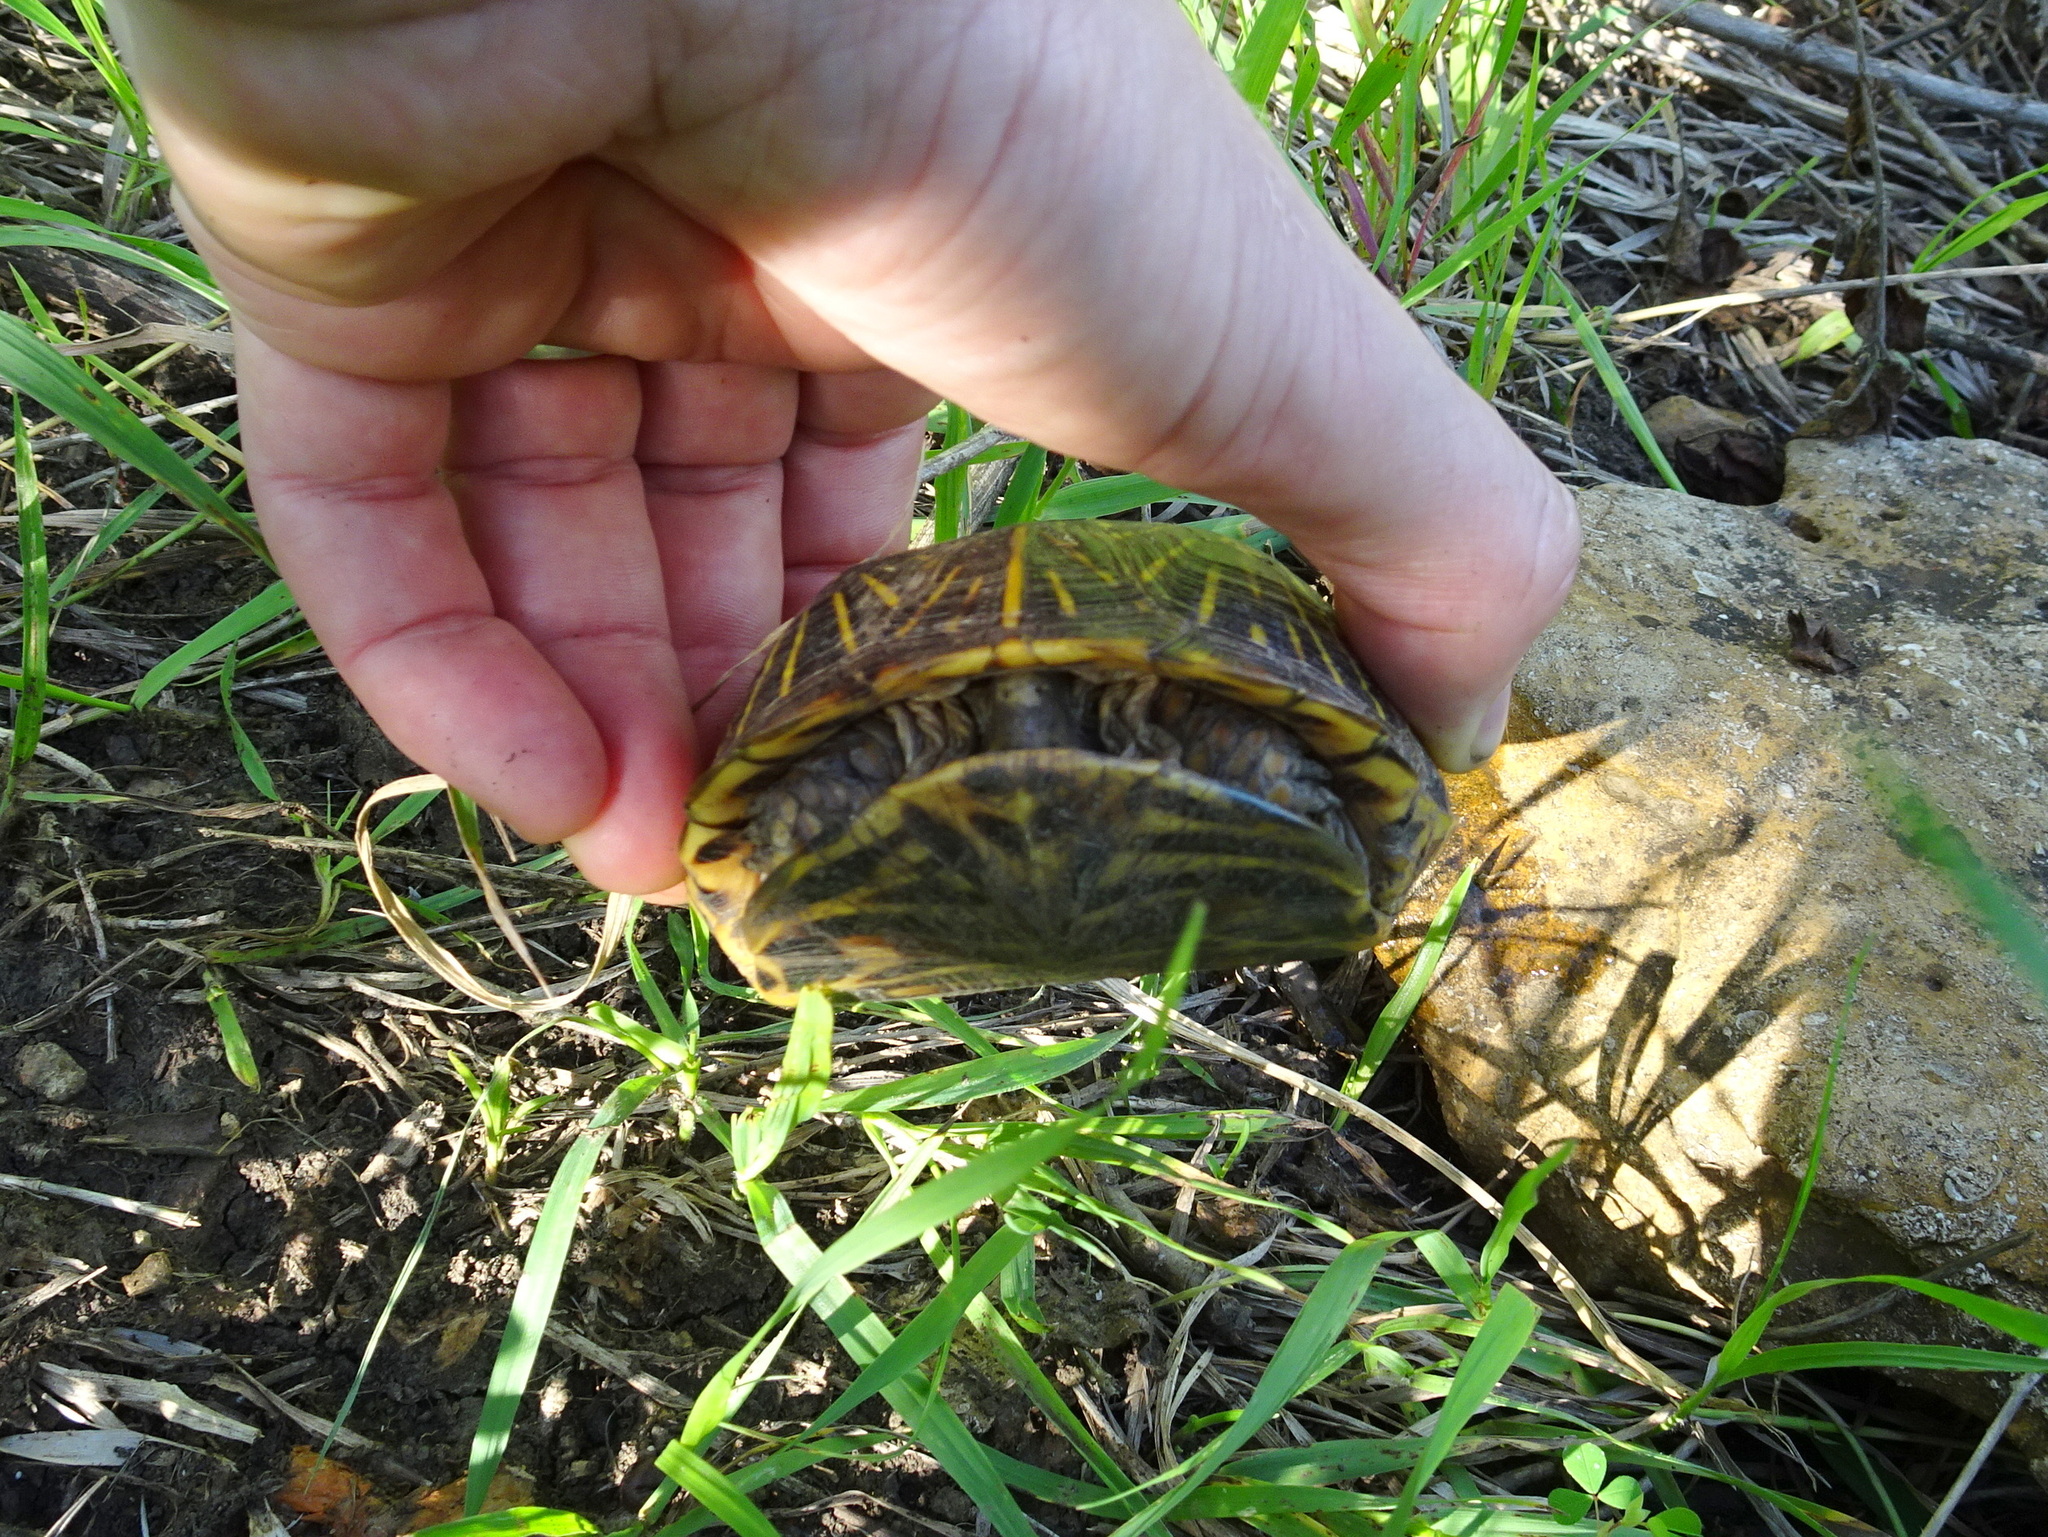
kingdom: Animalia
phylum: Chordata
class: Testudines
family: Emydidae
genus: Terrapene
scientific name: Terrapene ornata
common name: Western box turtle
